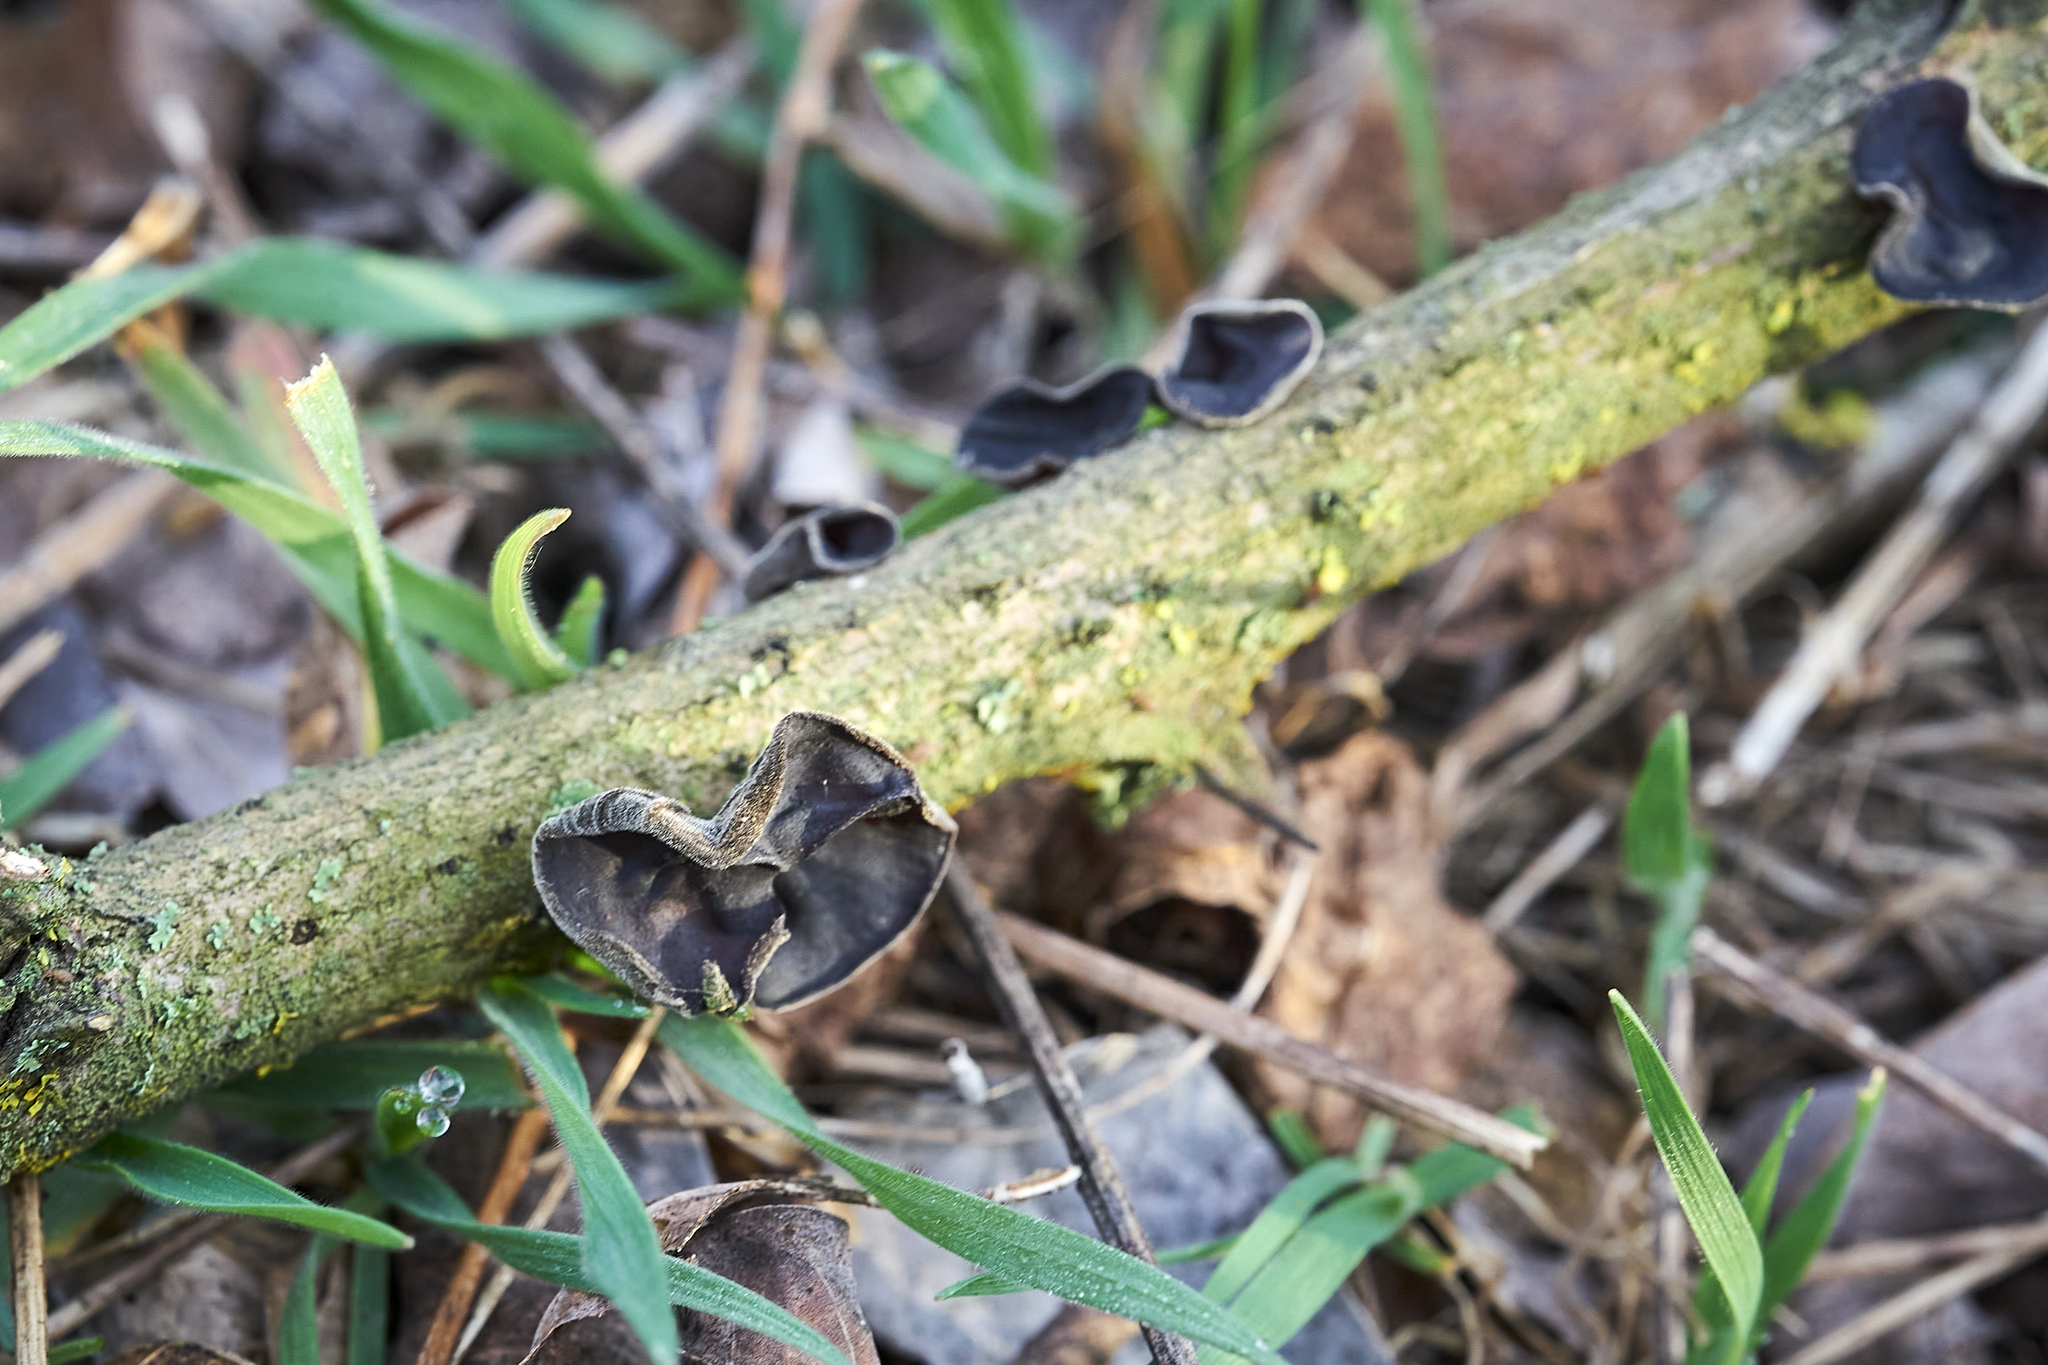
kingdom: Fungi
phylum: Basidiomycota
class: Agaricomycetes
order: Auriculariales
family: Auriculariaceae
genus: Auricularia
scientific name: Auricularia auricula-judae
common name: Jelly ear
